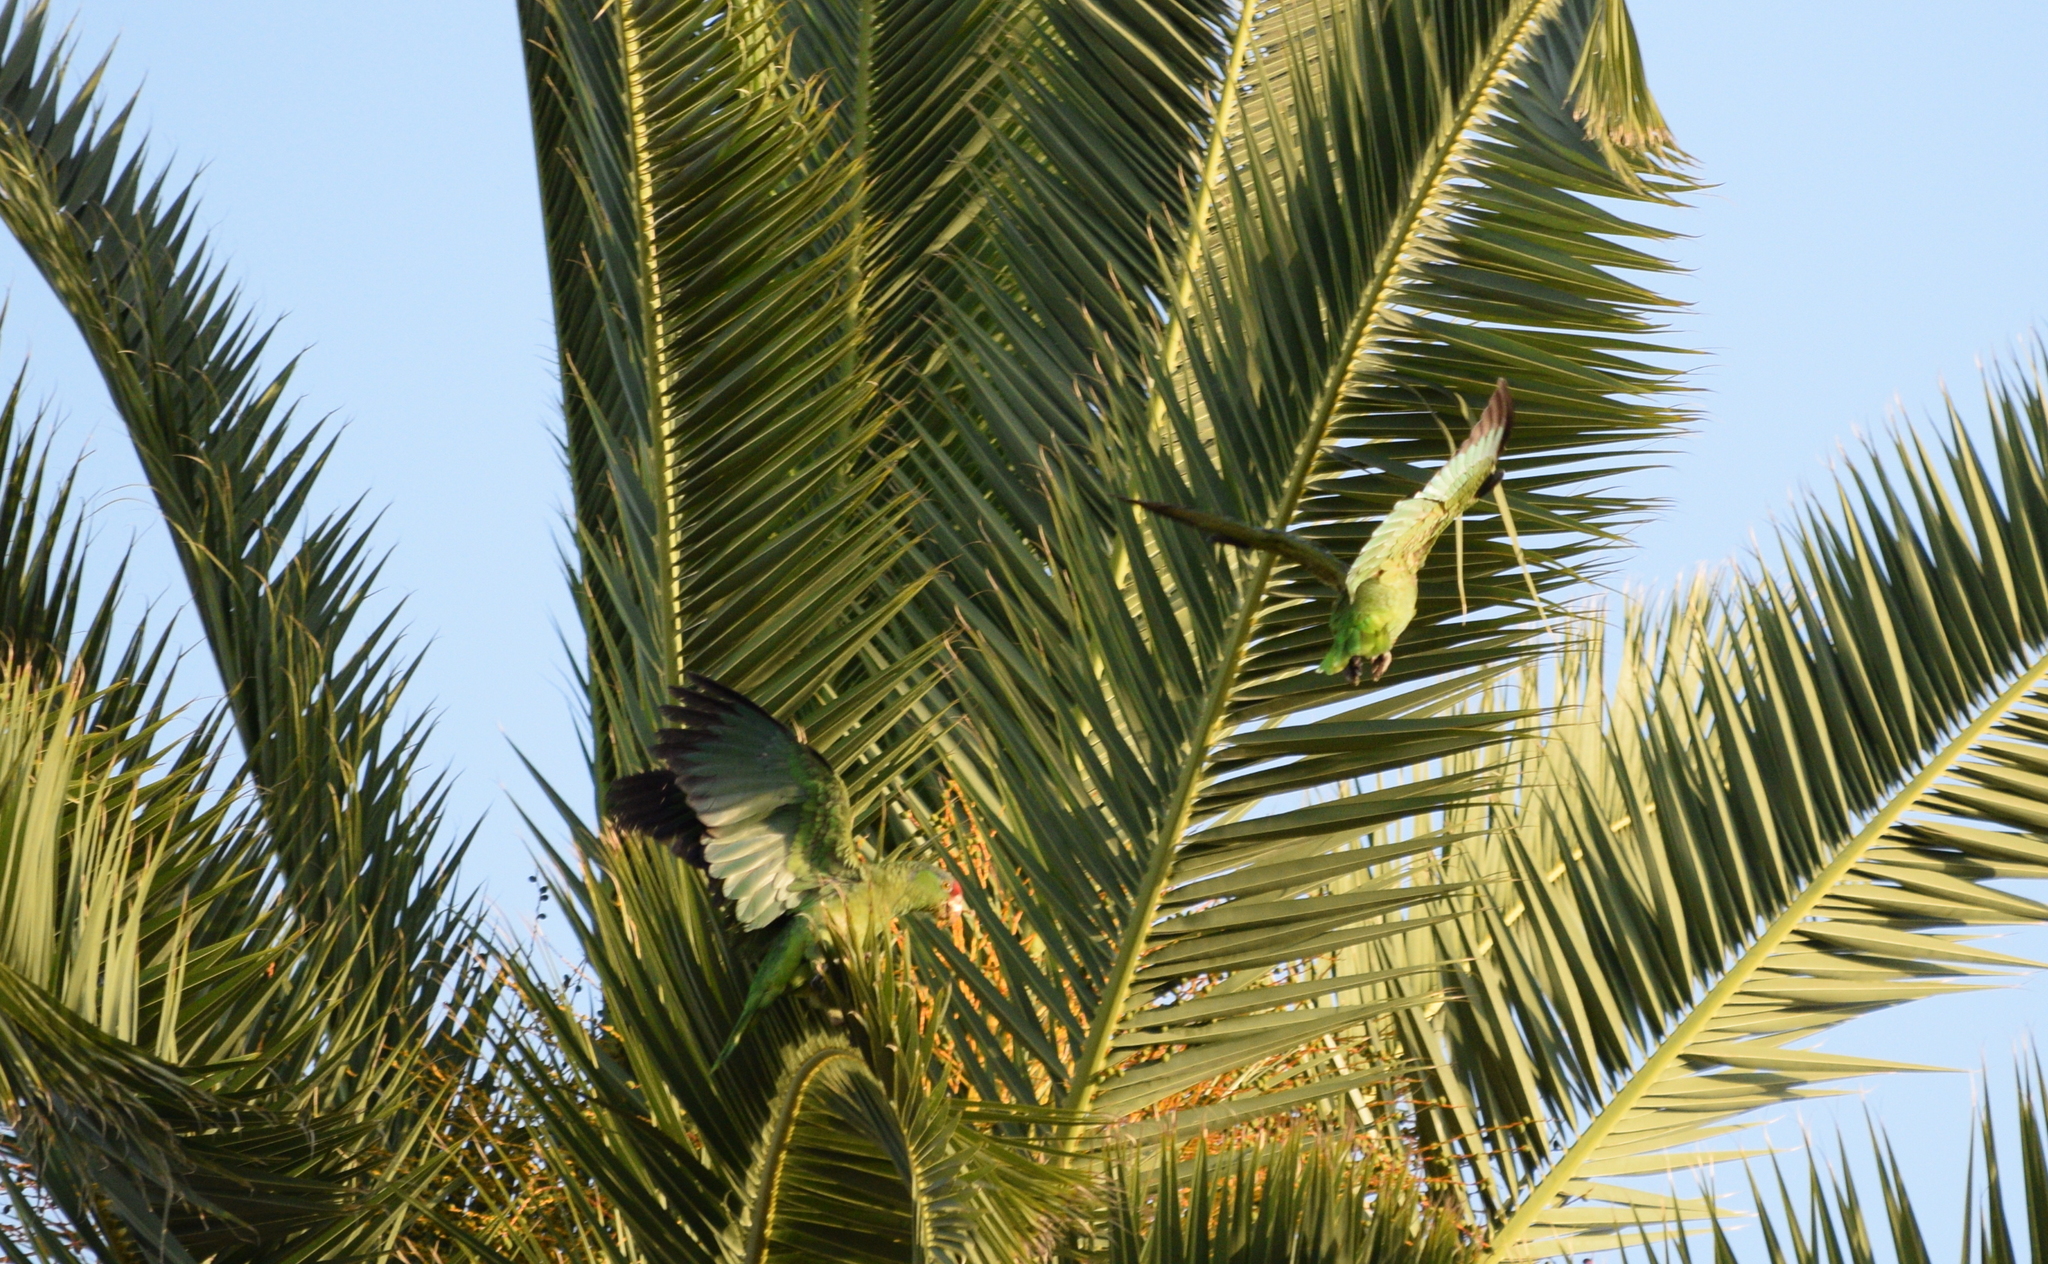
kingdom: Animalia
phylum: Chordata
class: Aves
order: Psittaciformes
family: Psittacidae
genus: Amazona
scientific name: Amazona viridigenalis
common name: Red-crowned amazon
